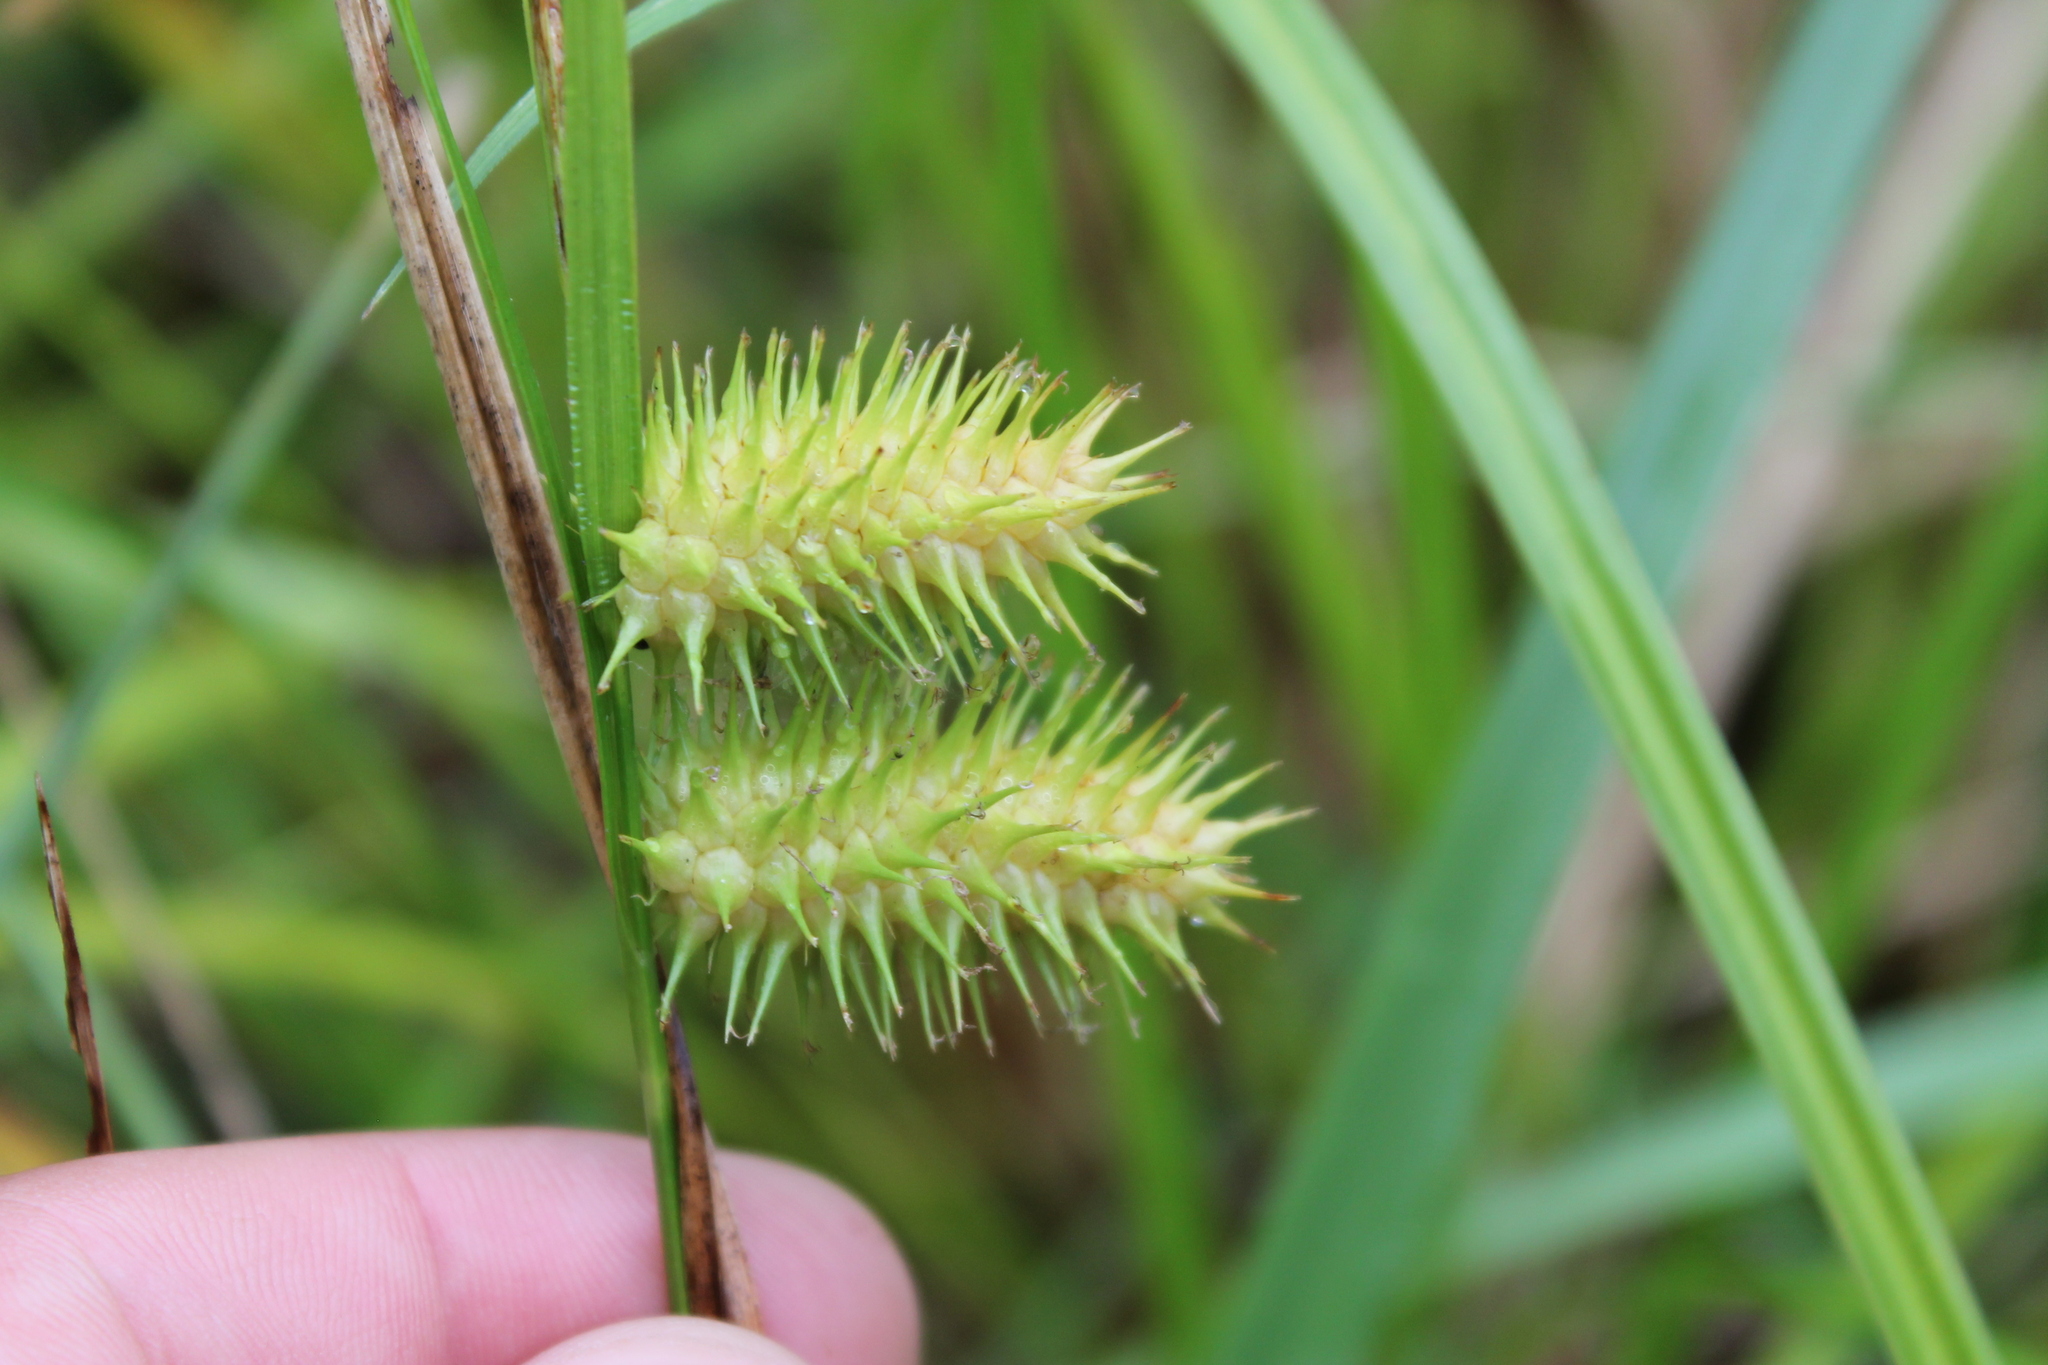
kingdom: Plantae
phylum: Tracheophyta
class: Liliopsida
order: Poales
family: Cyperaceae
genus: Carex
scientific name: Carex lurida
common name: Sallow sedge
